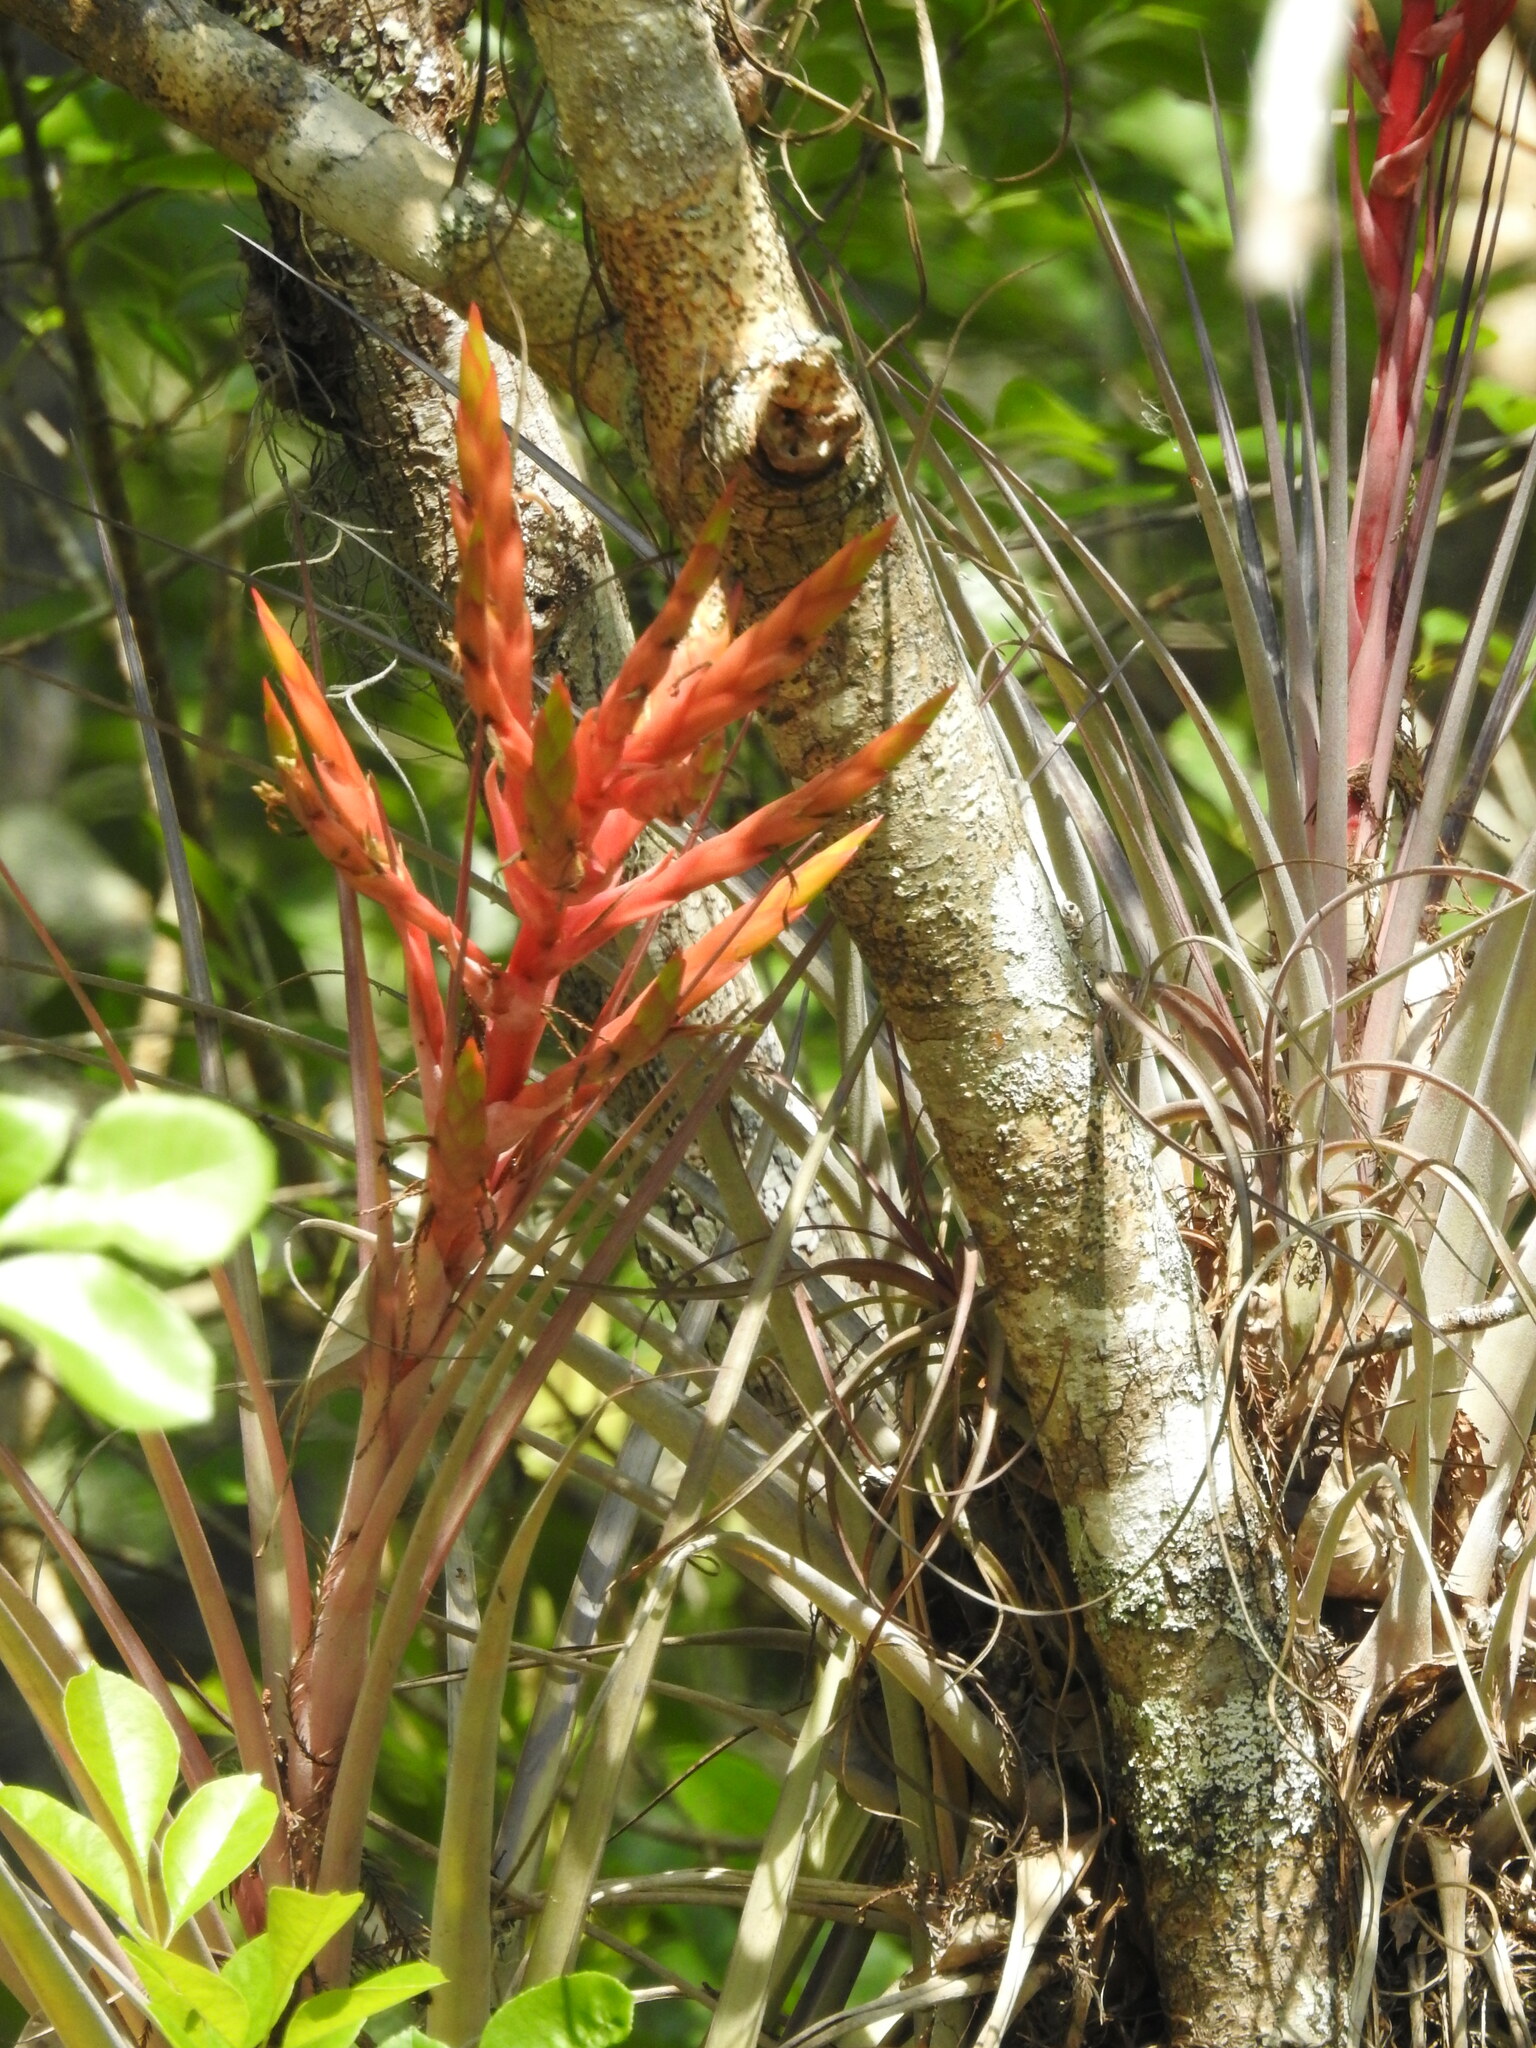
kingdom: Plantae
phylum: Tracheophyta
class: Liliopsida
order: Poales
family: Bromeliaceae
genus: Tillandsia
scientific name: Tillandsia fasciculata
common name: Giant airplant
